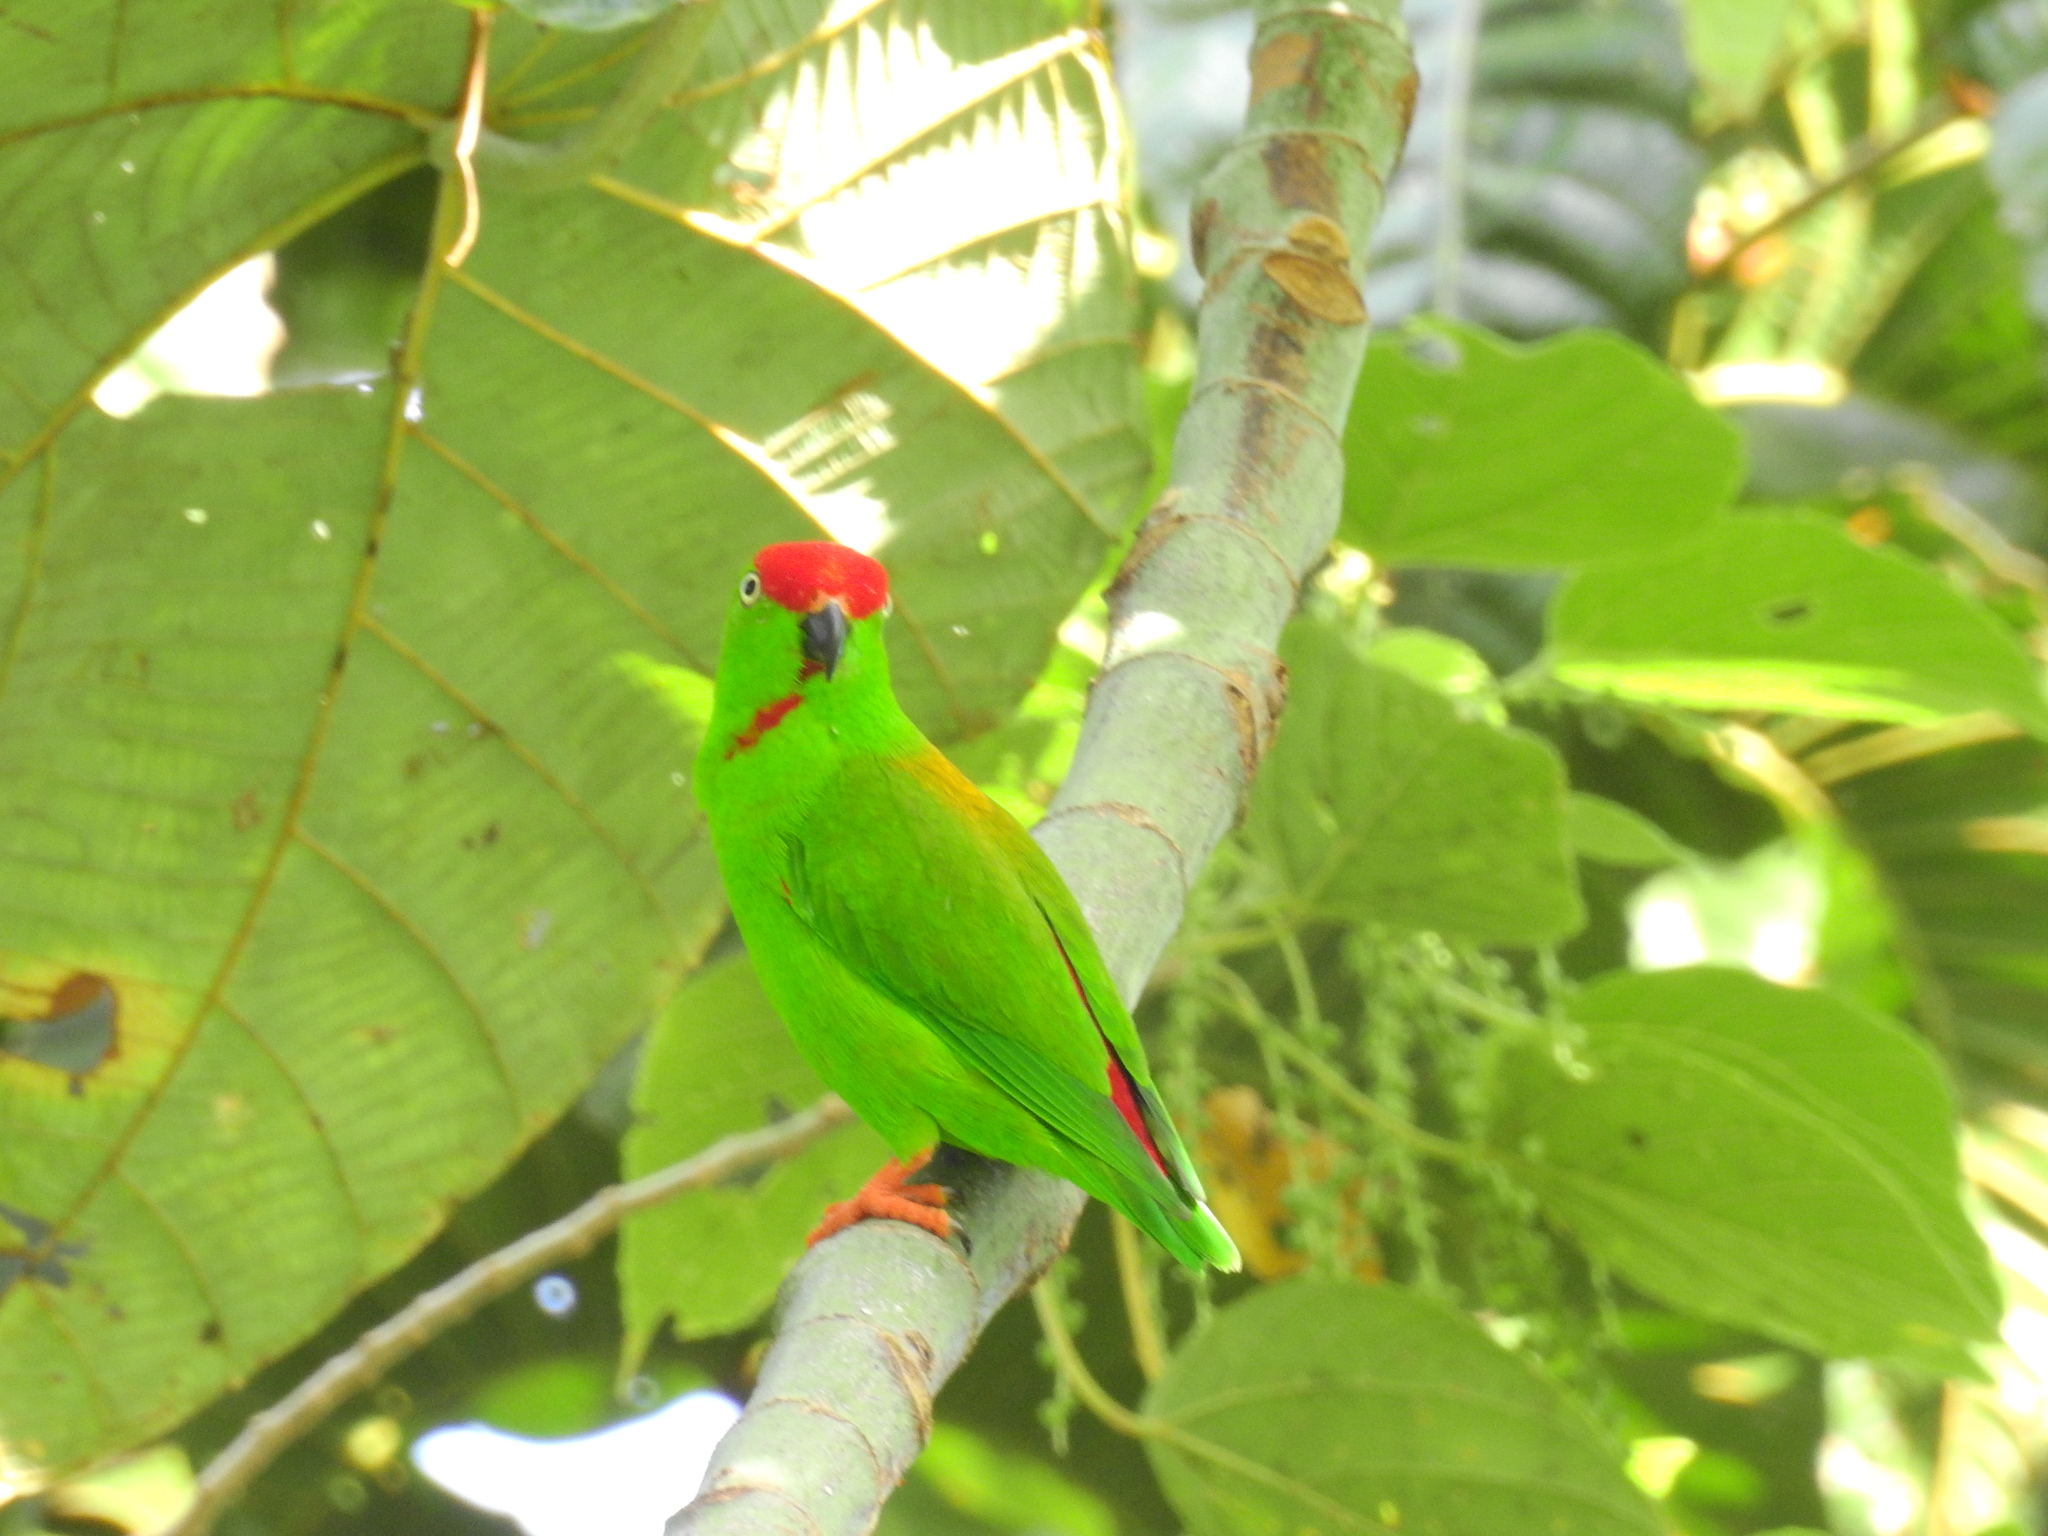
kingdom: Animalia
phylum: Chordata
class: Aves
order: Psittaciformes
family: Psittacidae
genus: Loriculus
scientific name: Loriculus stigmatus
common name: Great hanging parrot
